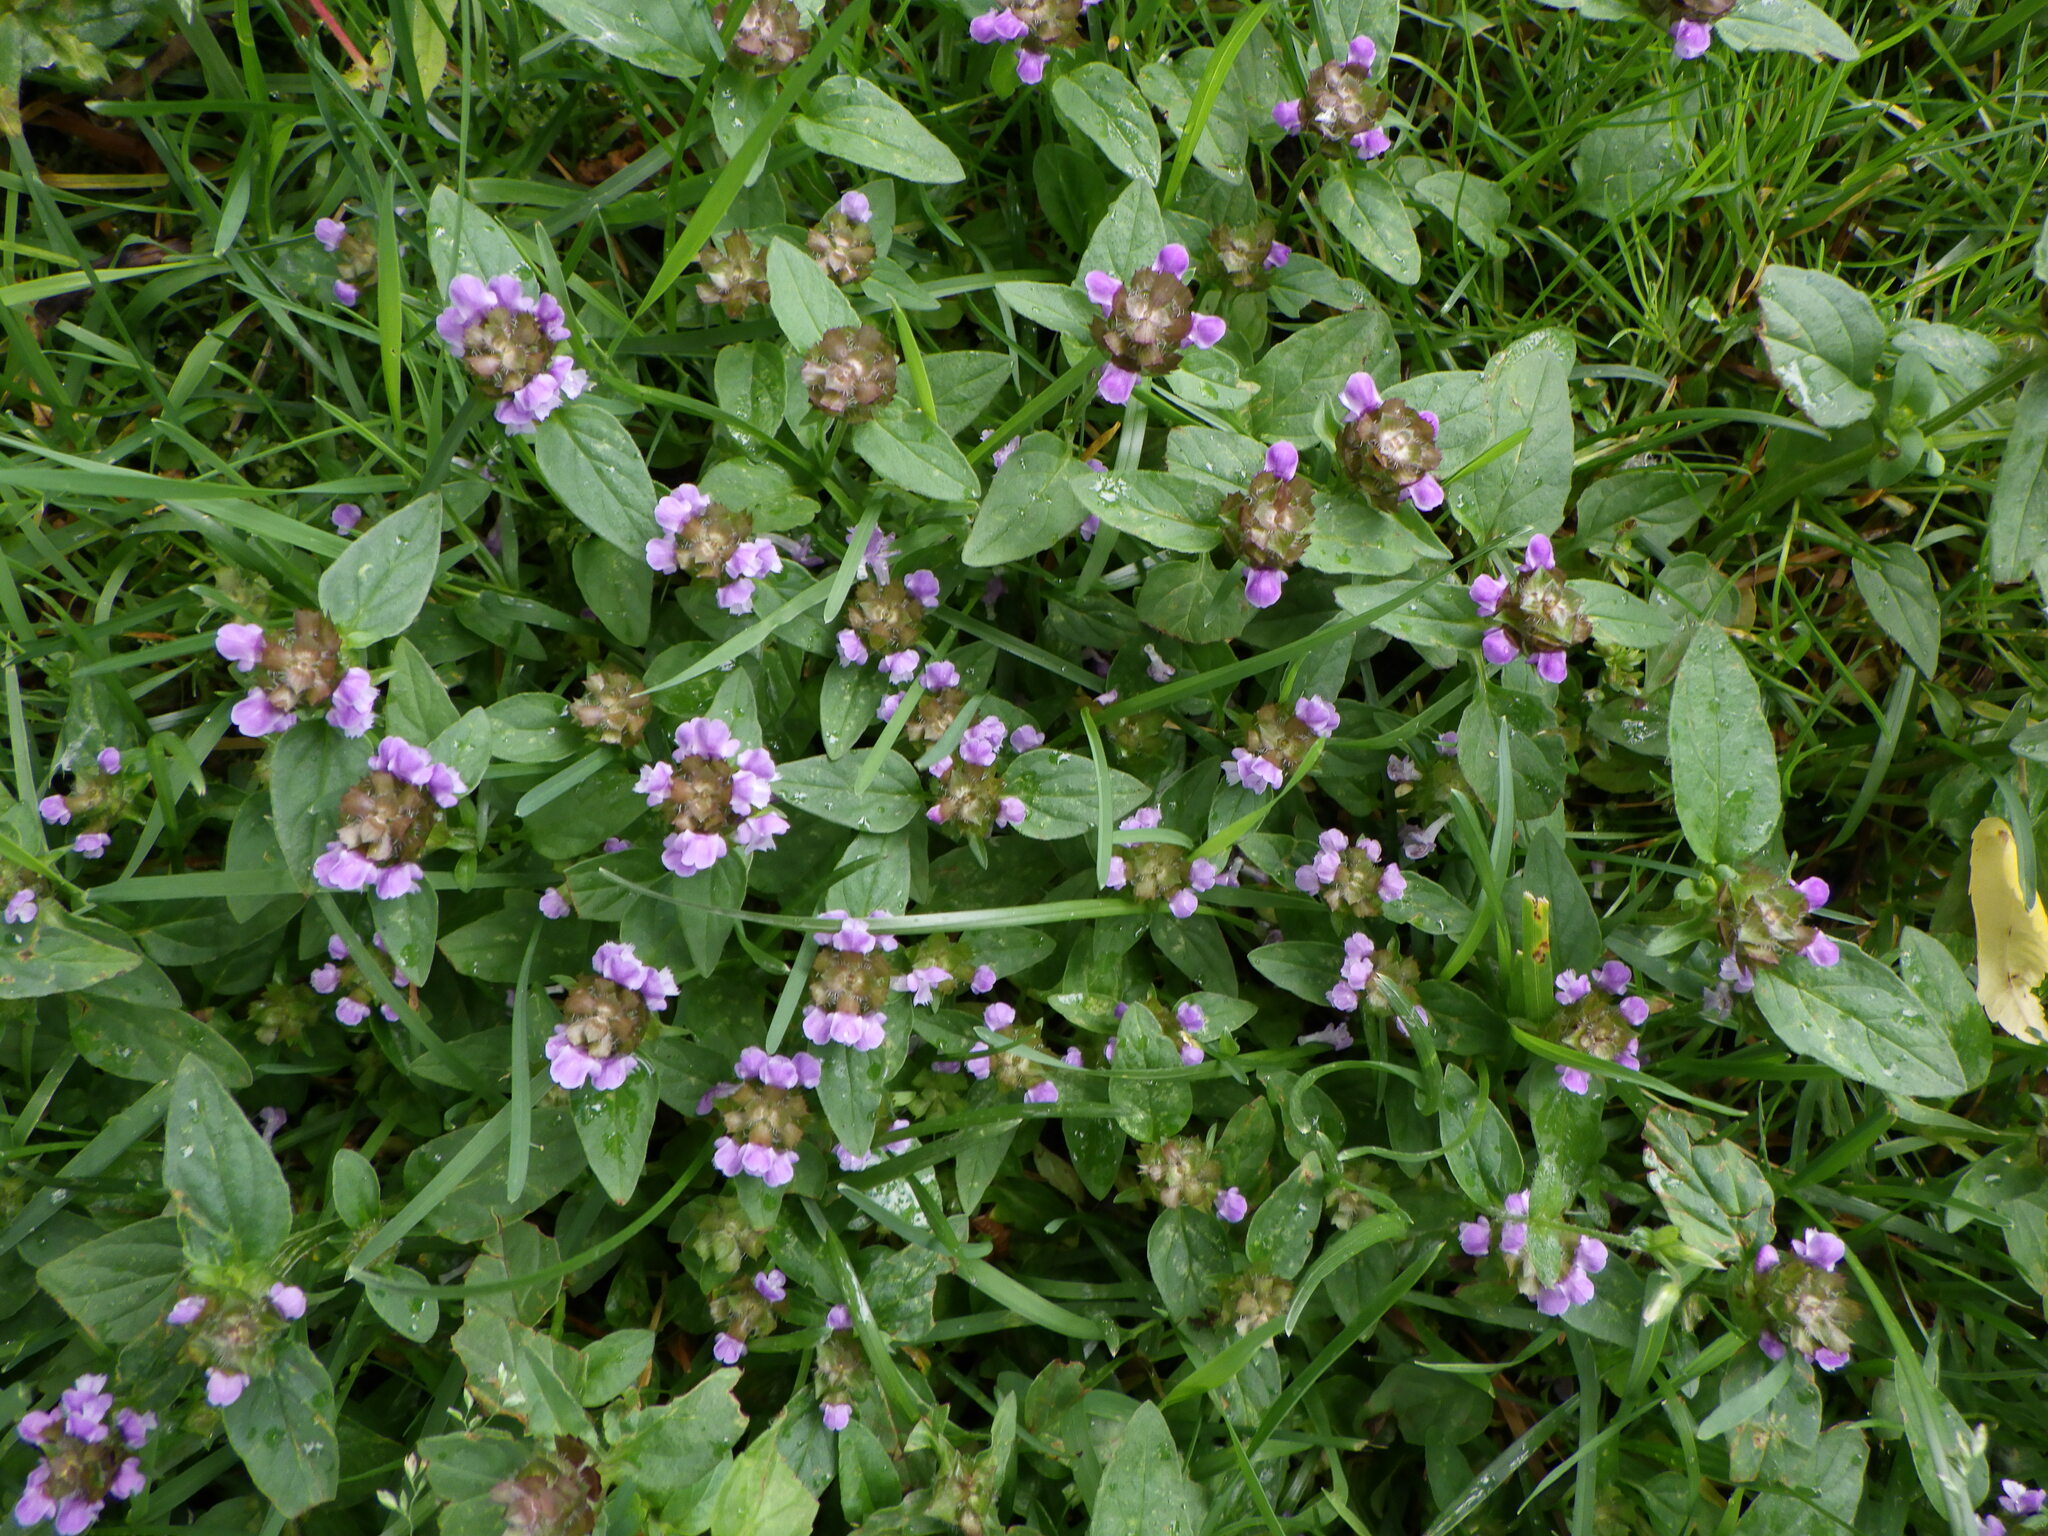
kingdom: Plantae
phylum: Tracheophyta
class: Magnoliopsida
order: Lamiales
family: Lamiaceae
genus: Prunella
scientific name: Prunella vulgaris
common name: Heal-all
